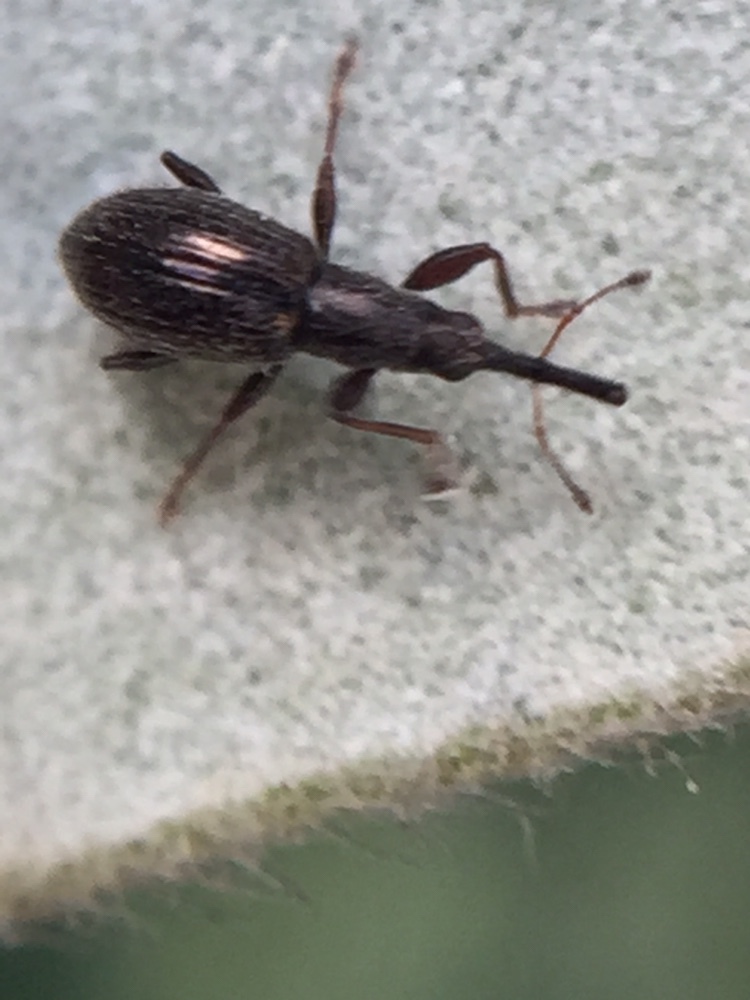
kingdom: Animalia
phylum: Arthropoda
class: Insecta
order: Coleoptera
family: Brentidae
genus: Neocyba
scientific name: Neocyba metrosideros
